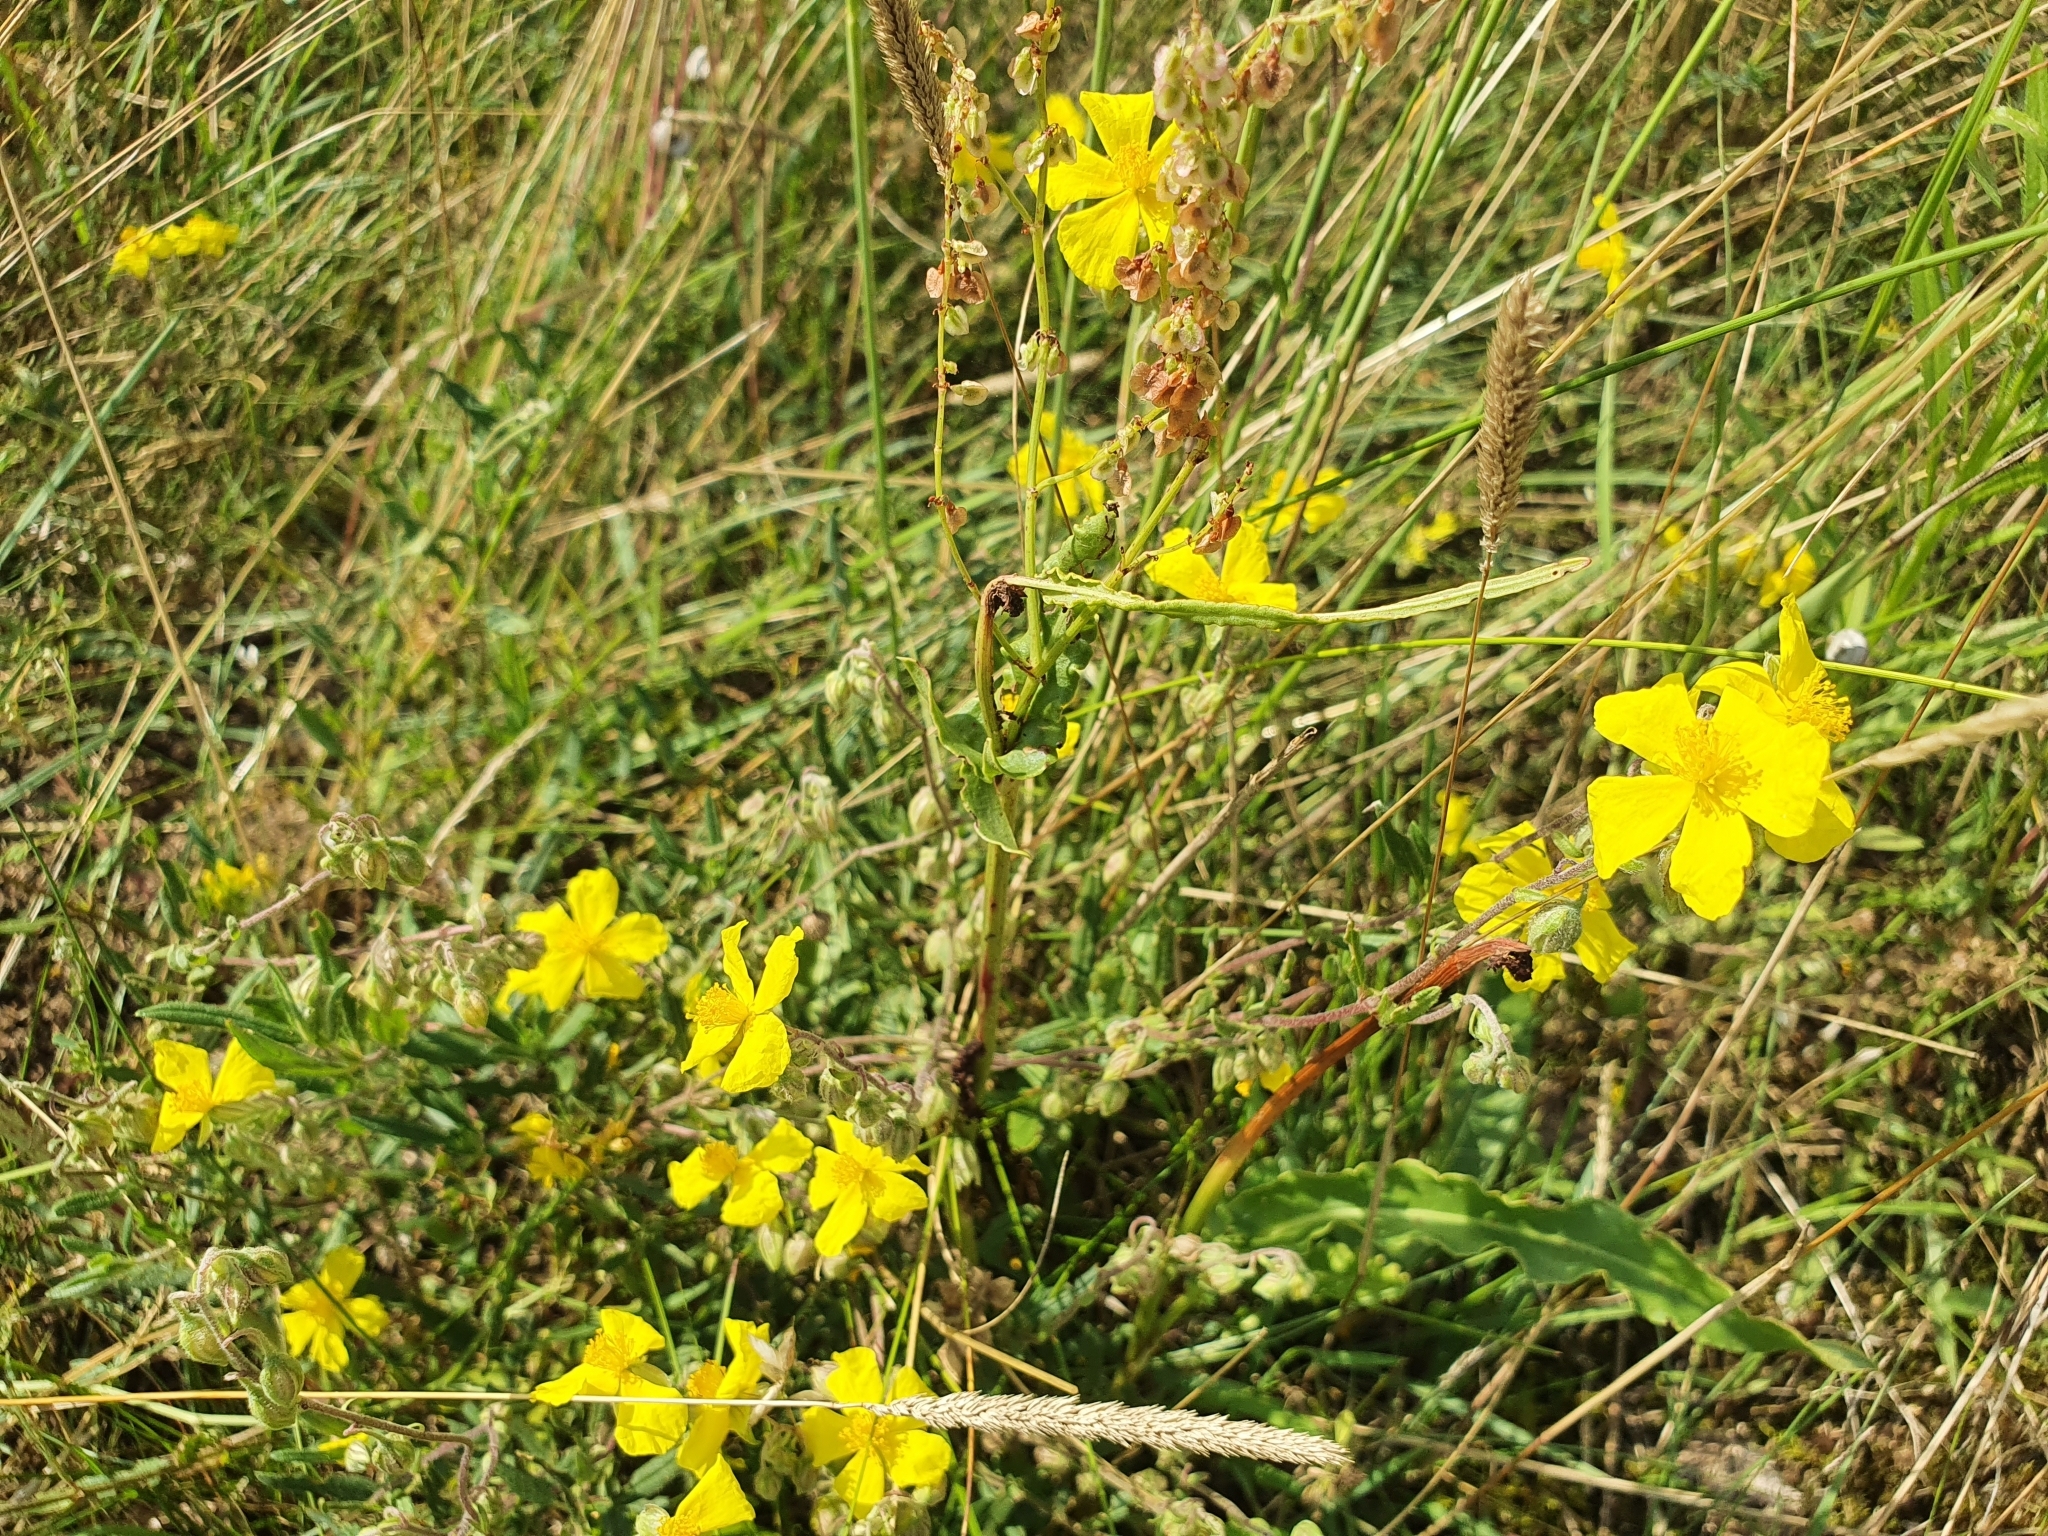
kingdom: Plantae
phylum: Tracheophyta
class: Magnoliopsida
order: Malvales
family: Cistaceae
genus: Helianthemum
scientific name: Helianthemum nummularium
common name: Common rock-rose
